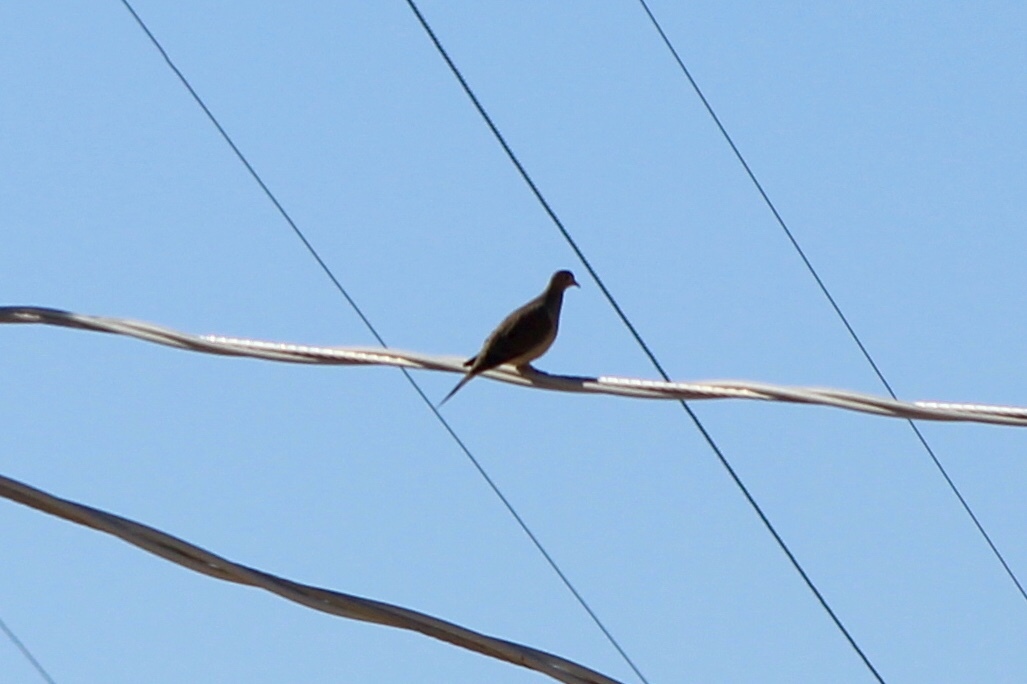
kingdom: Animalia
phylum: Chordata
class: Aves
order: Columbiformes
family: Columbidae
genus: Zenaida
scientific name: Zenaida macroura
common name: Mourning dove
